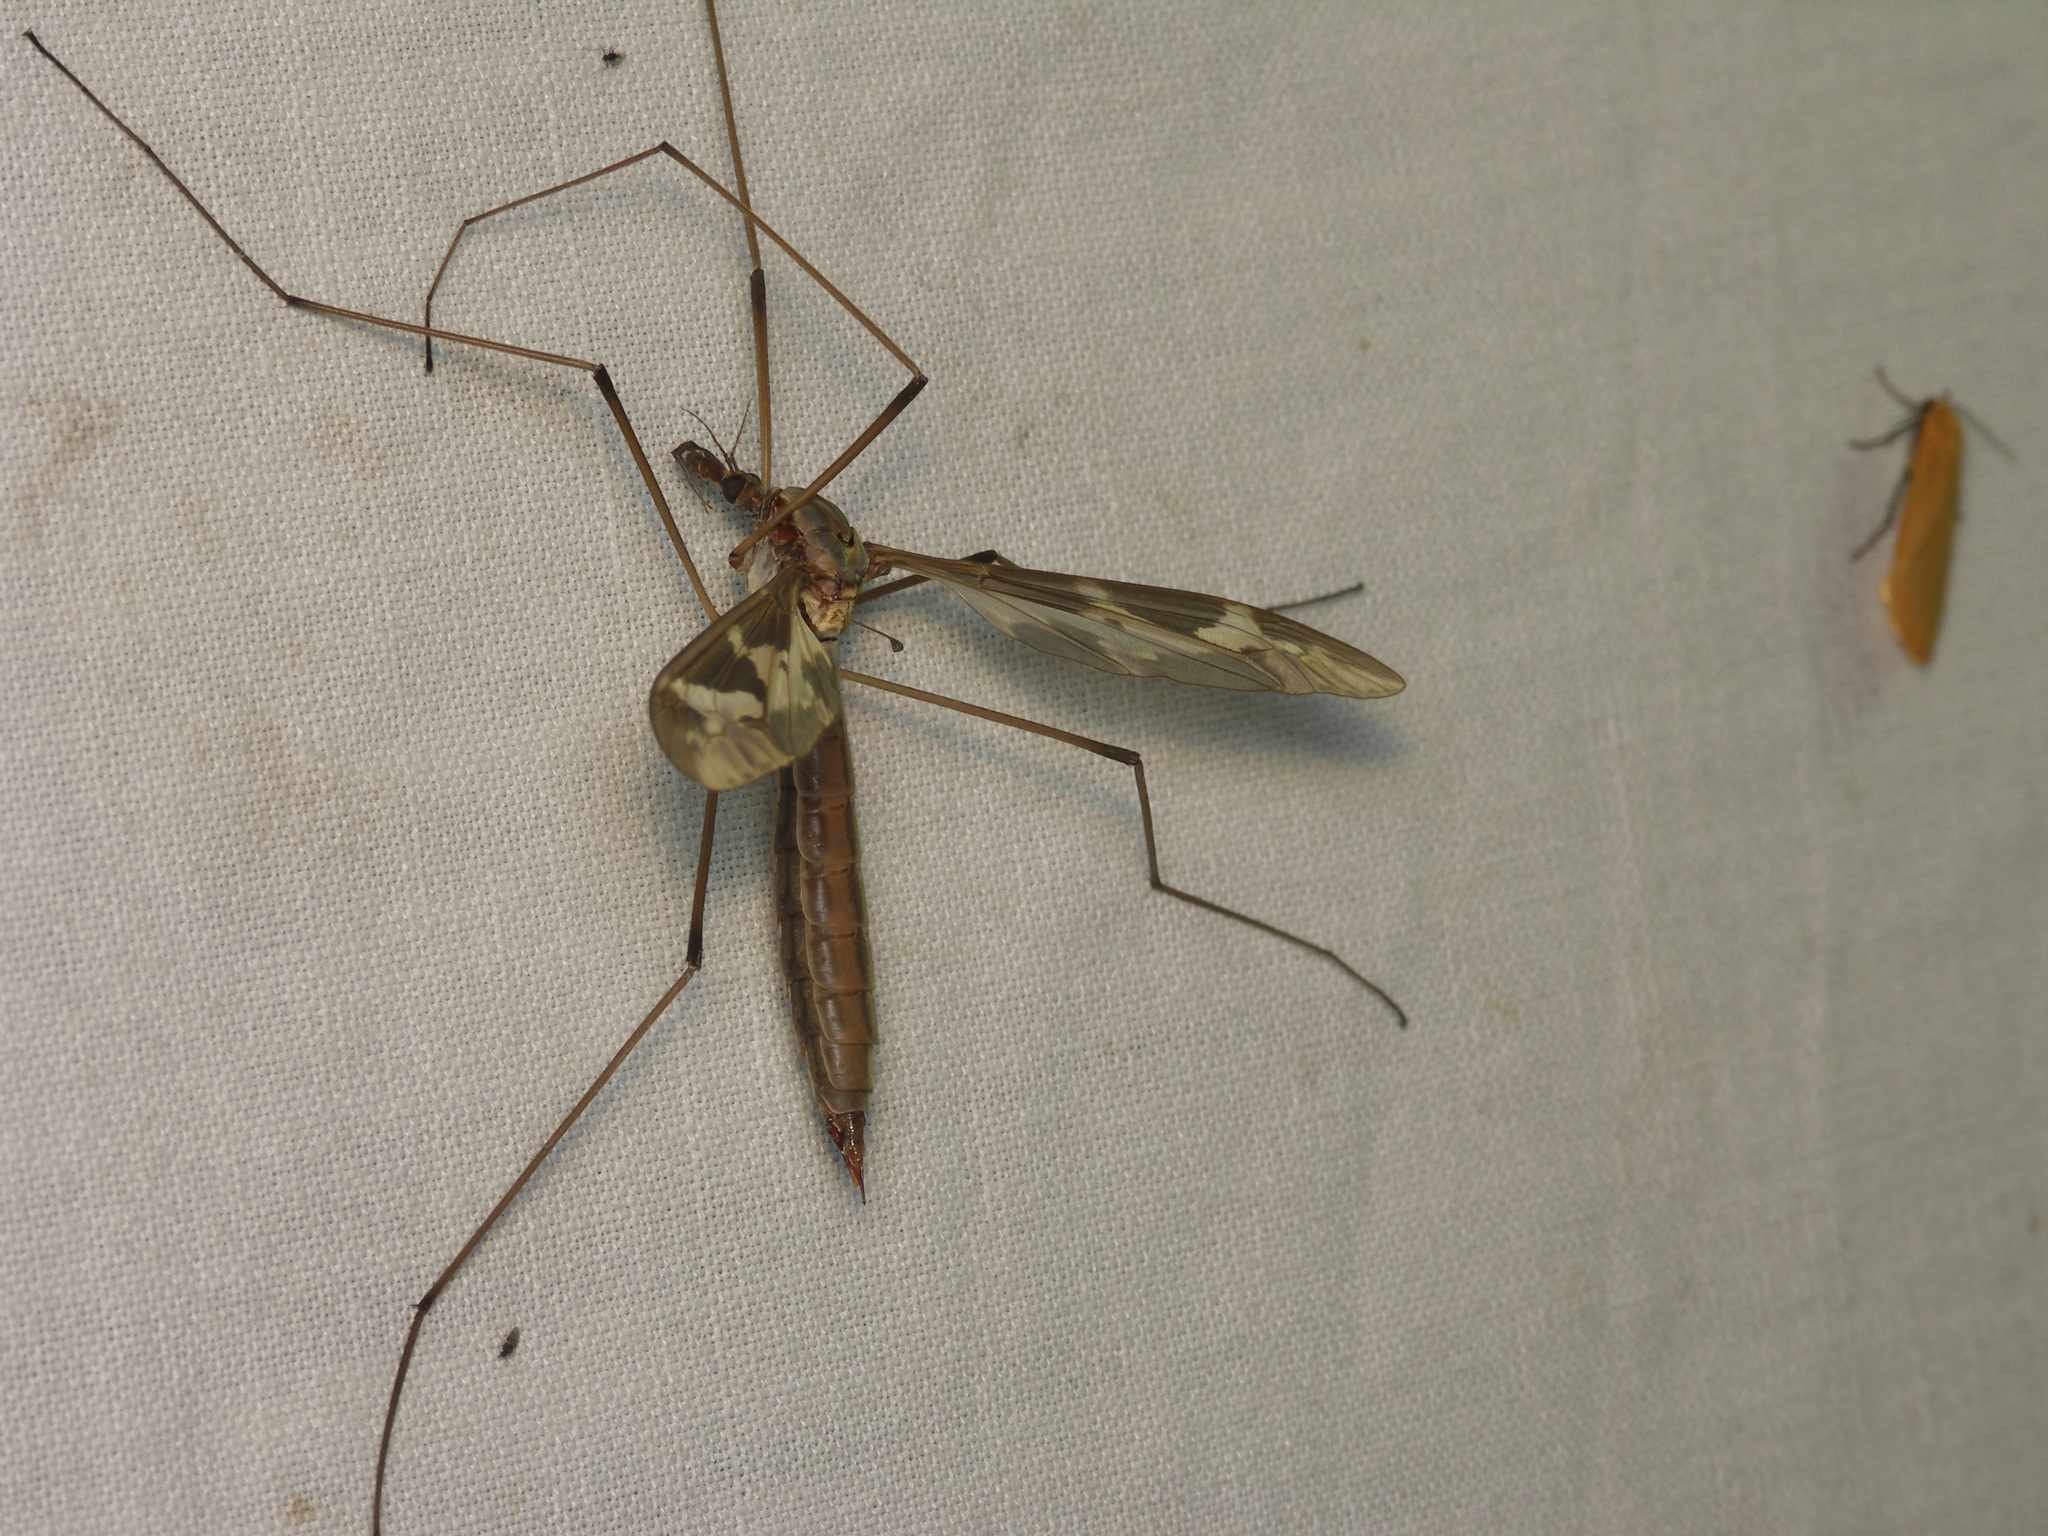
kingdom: Animalia
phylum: Arthropoda
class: Insecta
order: Diptera
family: Tipulidae
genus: Tipula
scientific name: Tipula maxima
